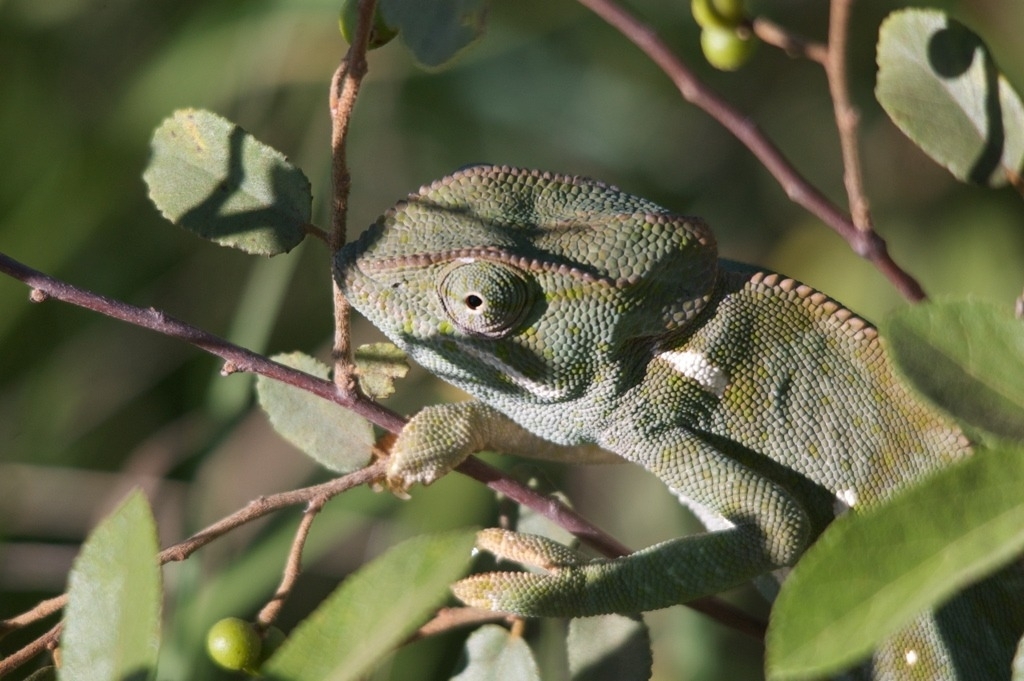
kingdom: Animalia
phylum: Chordata
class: Squamata
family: Chamaeleonidae
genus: Chamaeleo
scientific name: Chamaeleo dilepis
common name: Flapneck chameleon
